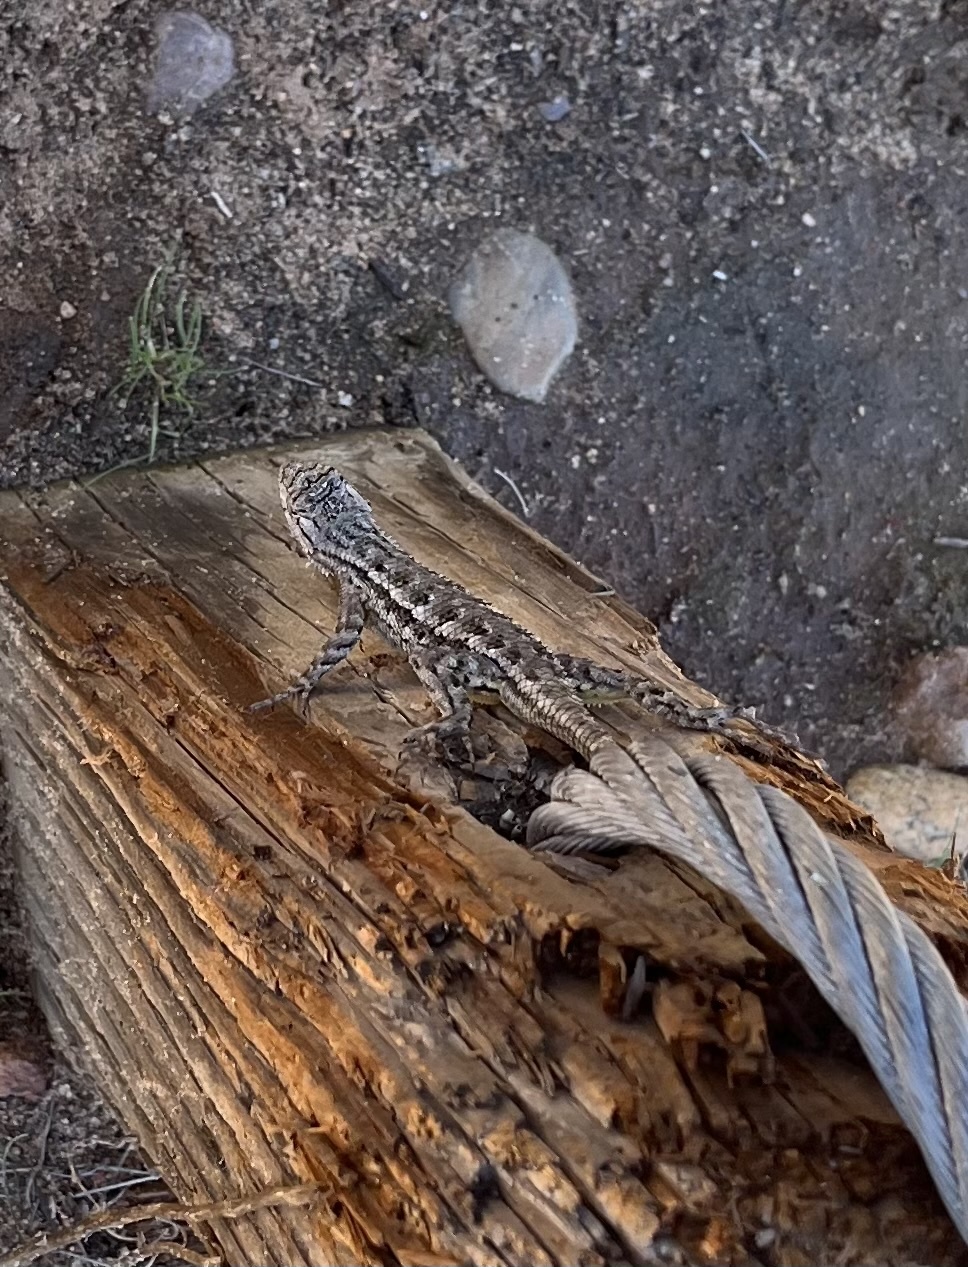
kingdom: Animalia
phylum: Chordata
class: Squamata
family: Phrynosomatidae
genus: Sceloporus
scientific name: Sceloporus occidentalis
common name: Western fence lizard
